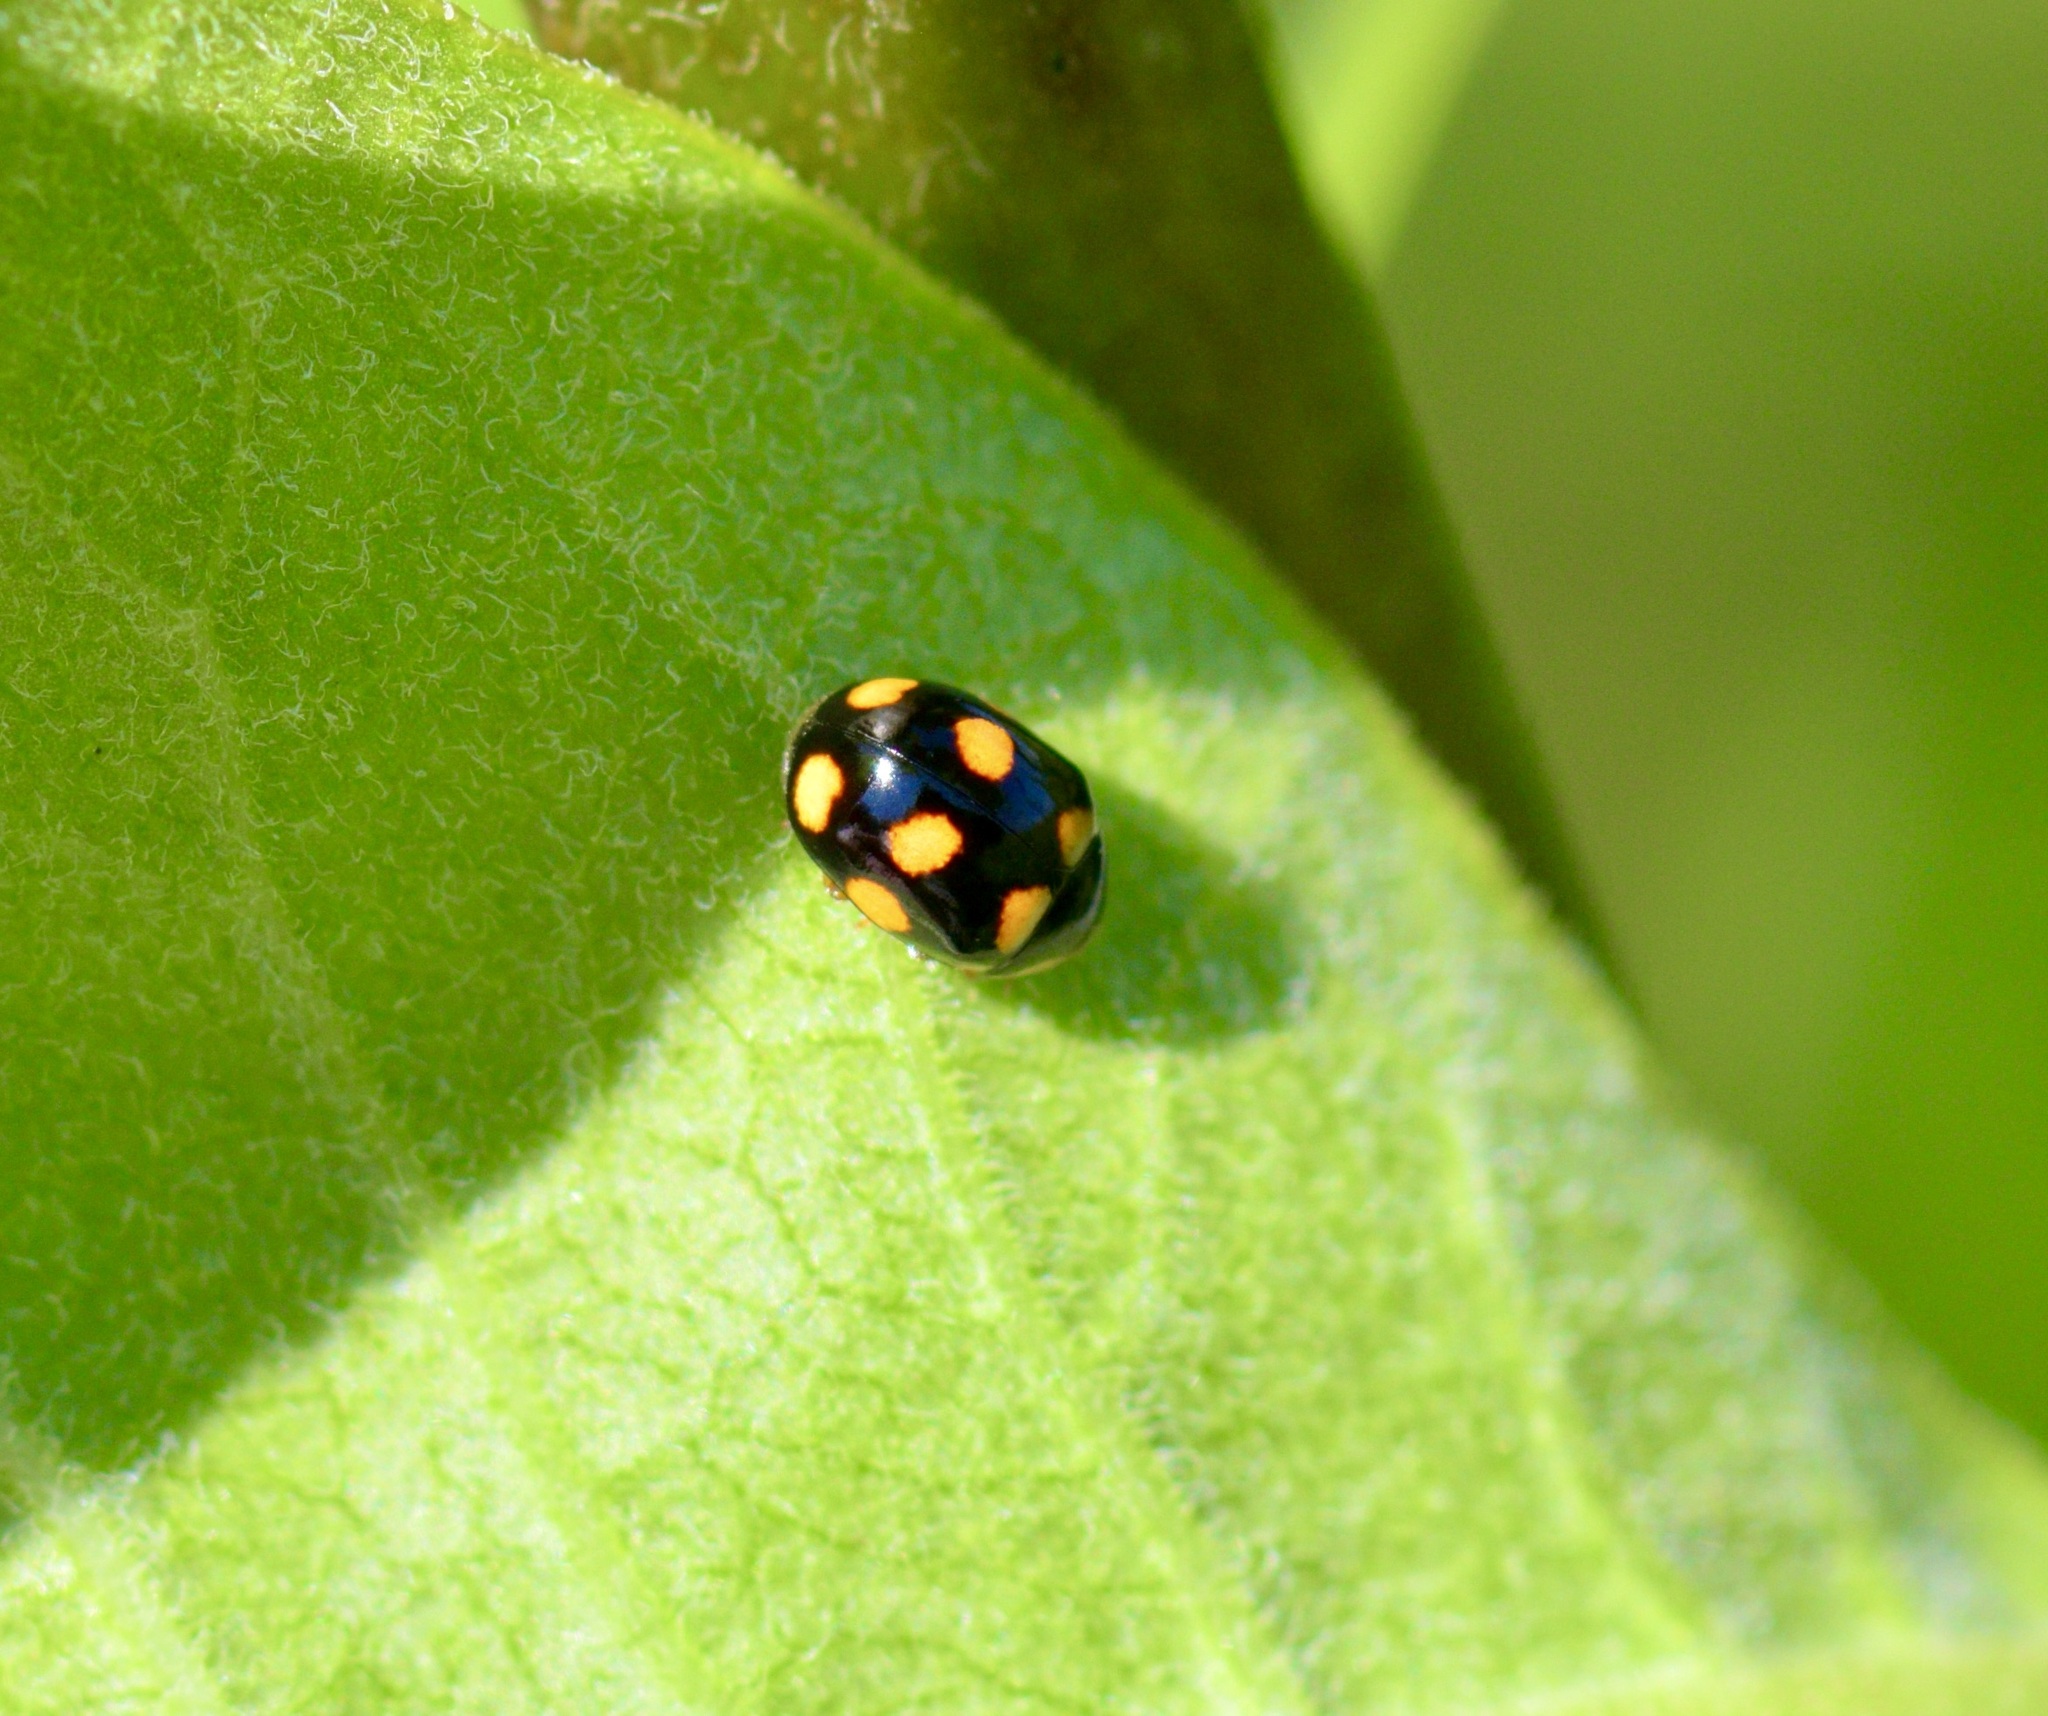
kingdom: Animalia
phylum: Arthropoda
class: Insecta
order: Coleoptera
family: Coccinellidae
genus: Brachiacantha
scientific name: Brachiacantha ursina
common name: Ursine spurleg lady beetle
